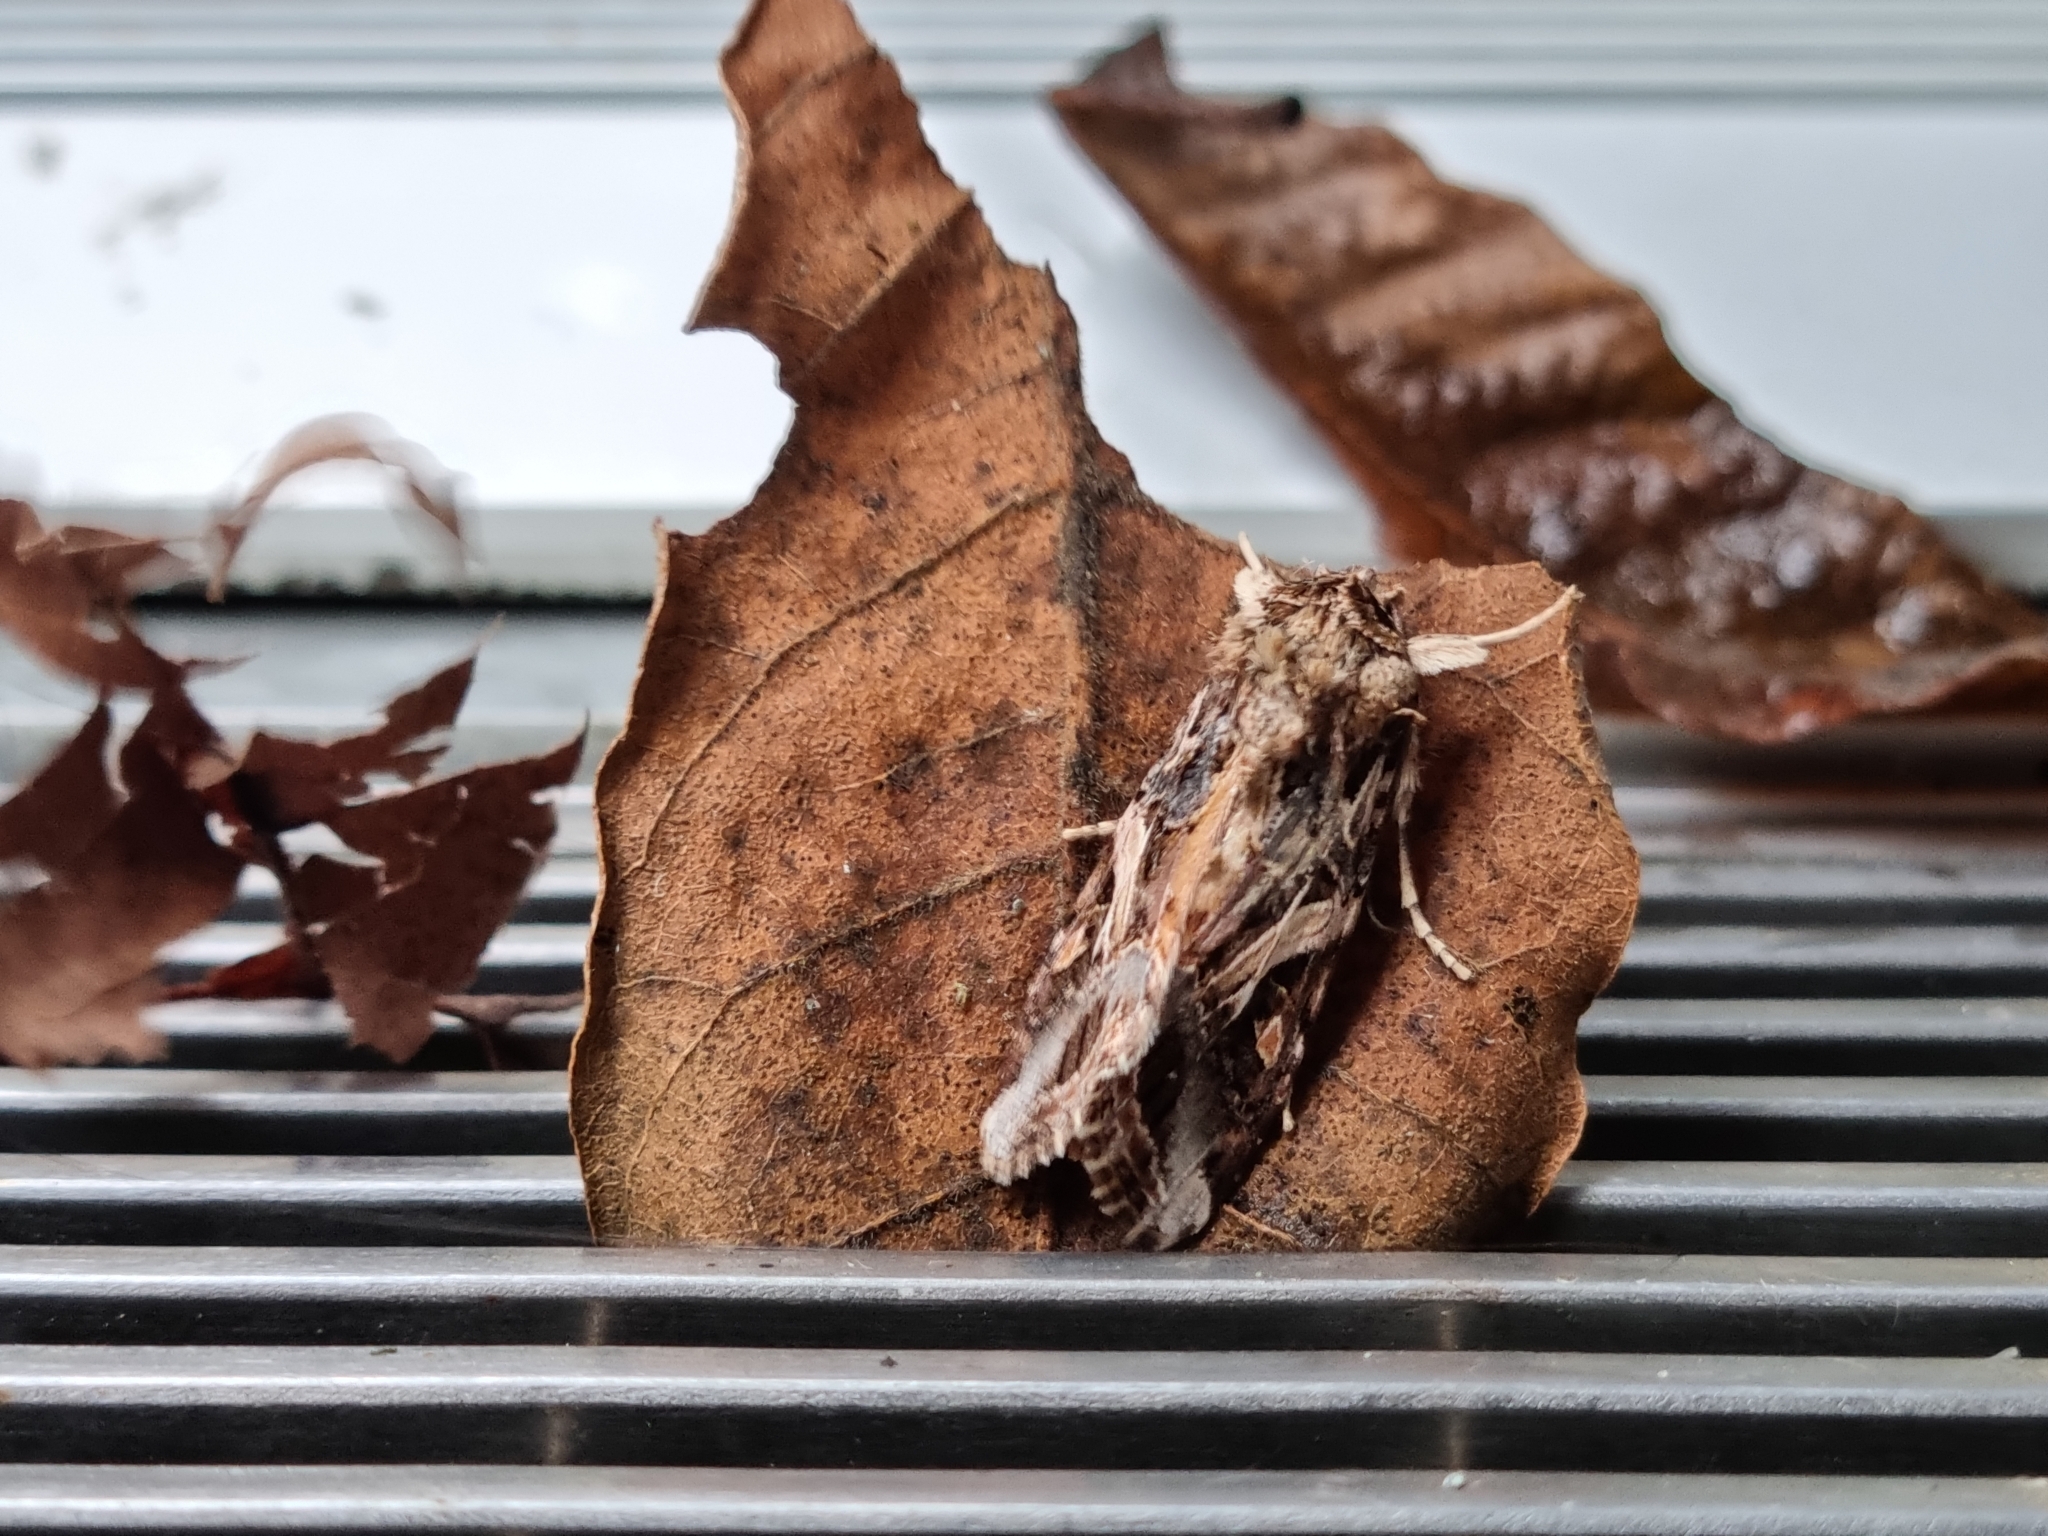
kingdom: Animalia
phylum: Arthropoda
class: Insecta
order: Lepidoptera
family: Noctuidae
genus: Spodoptera
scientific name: Spodoptera litura
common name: Asian cotton leafworm
